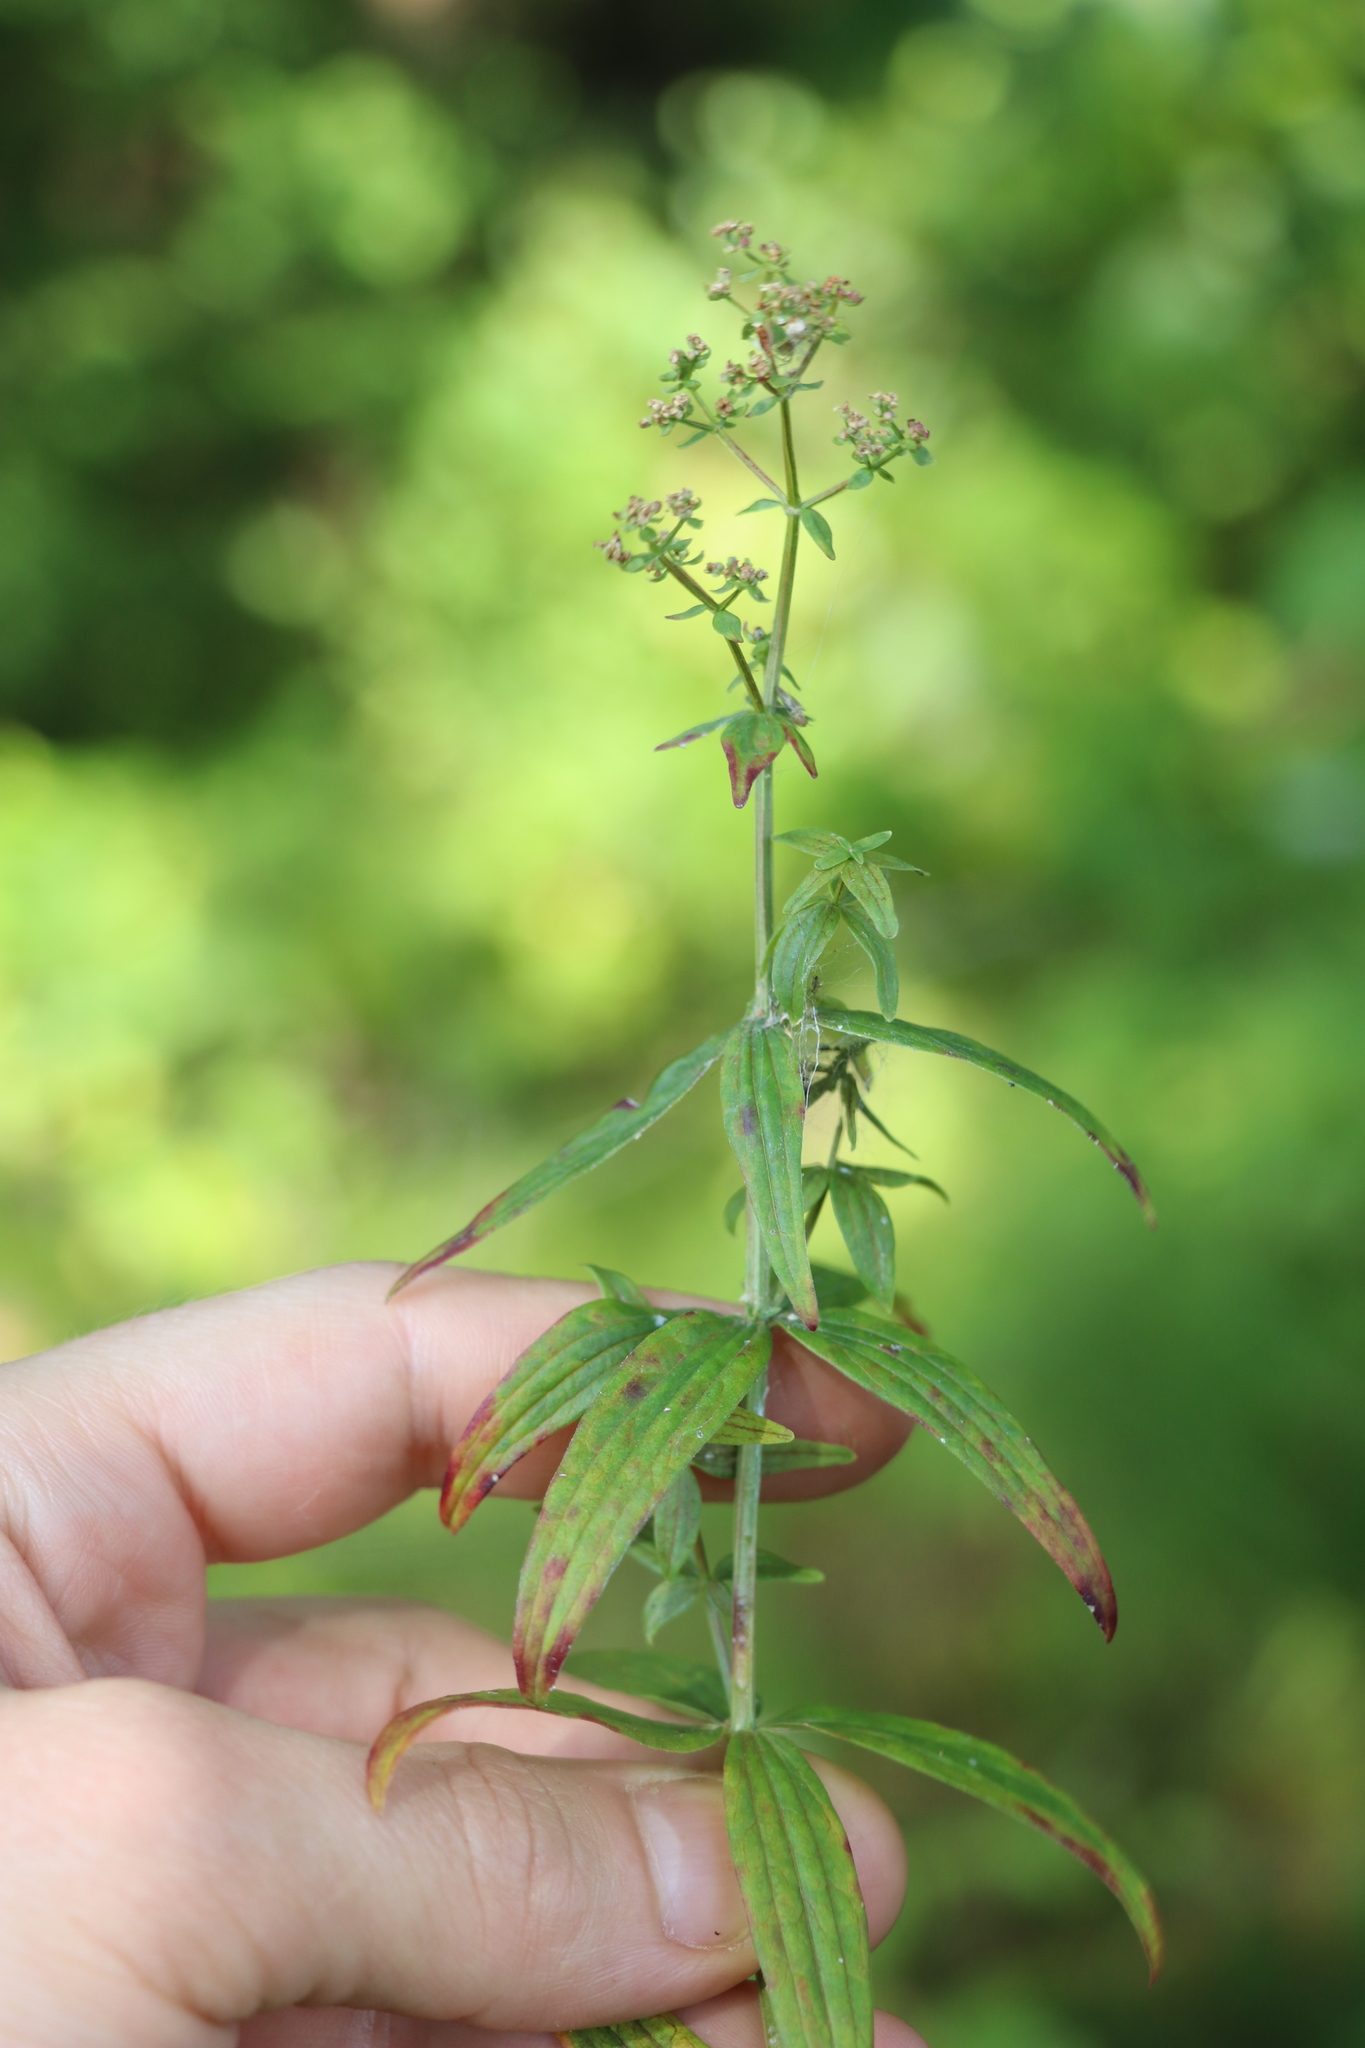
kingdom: Plantae
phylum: Tracheophyta
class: Magnoliopsida
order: Gentianales
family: Rubiaceae
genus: Galium
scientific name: Galium boreale
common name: Northern bedstraw
